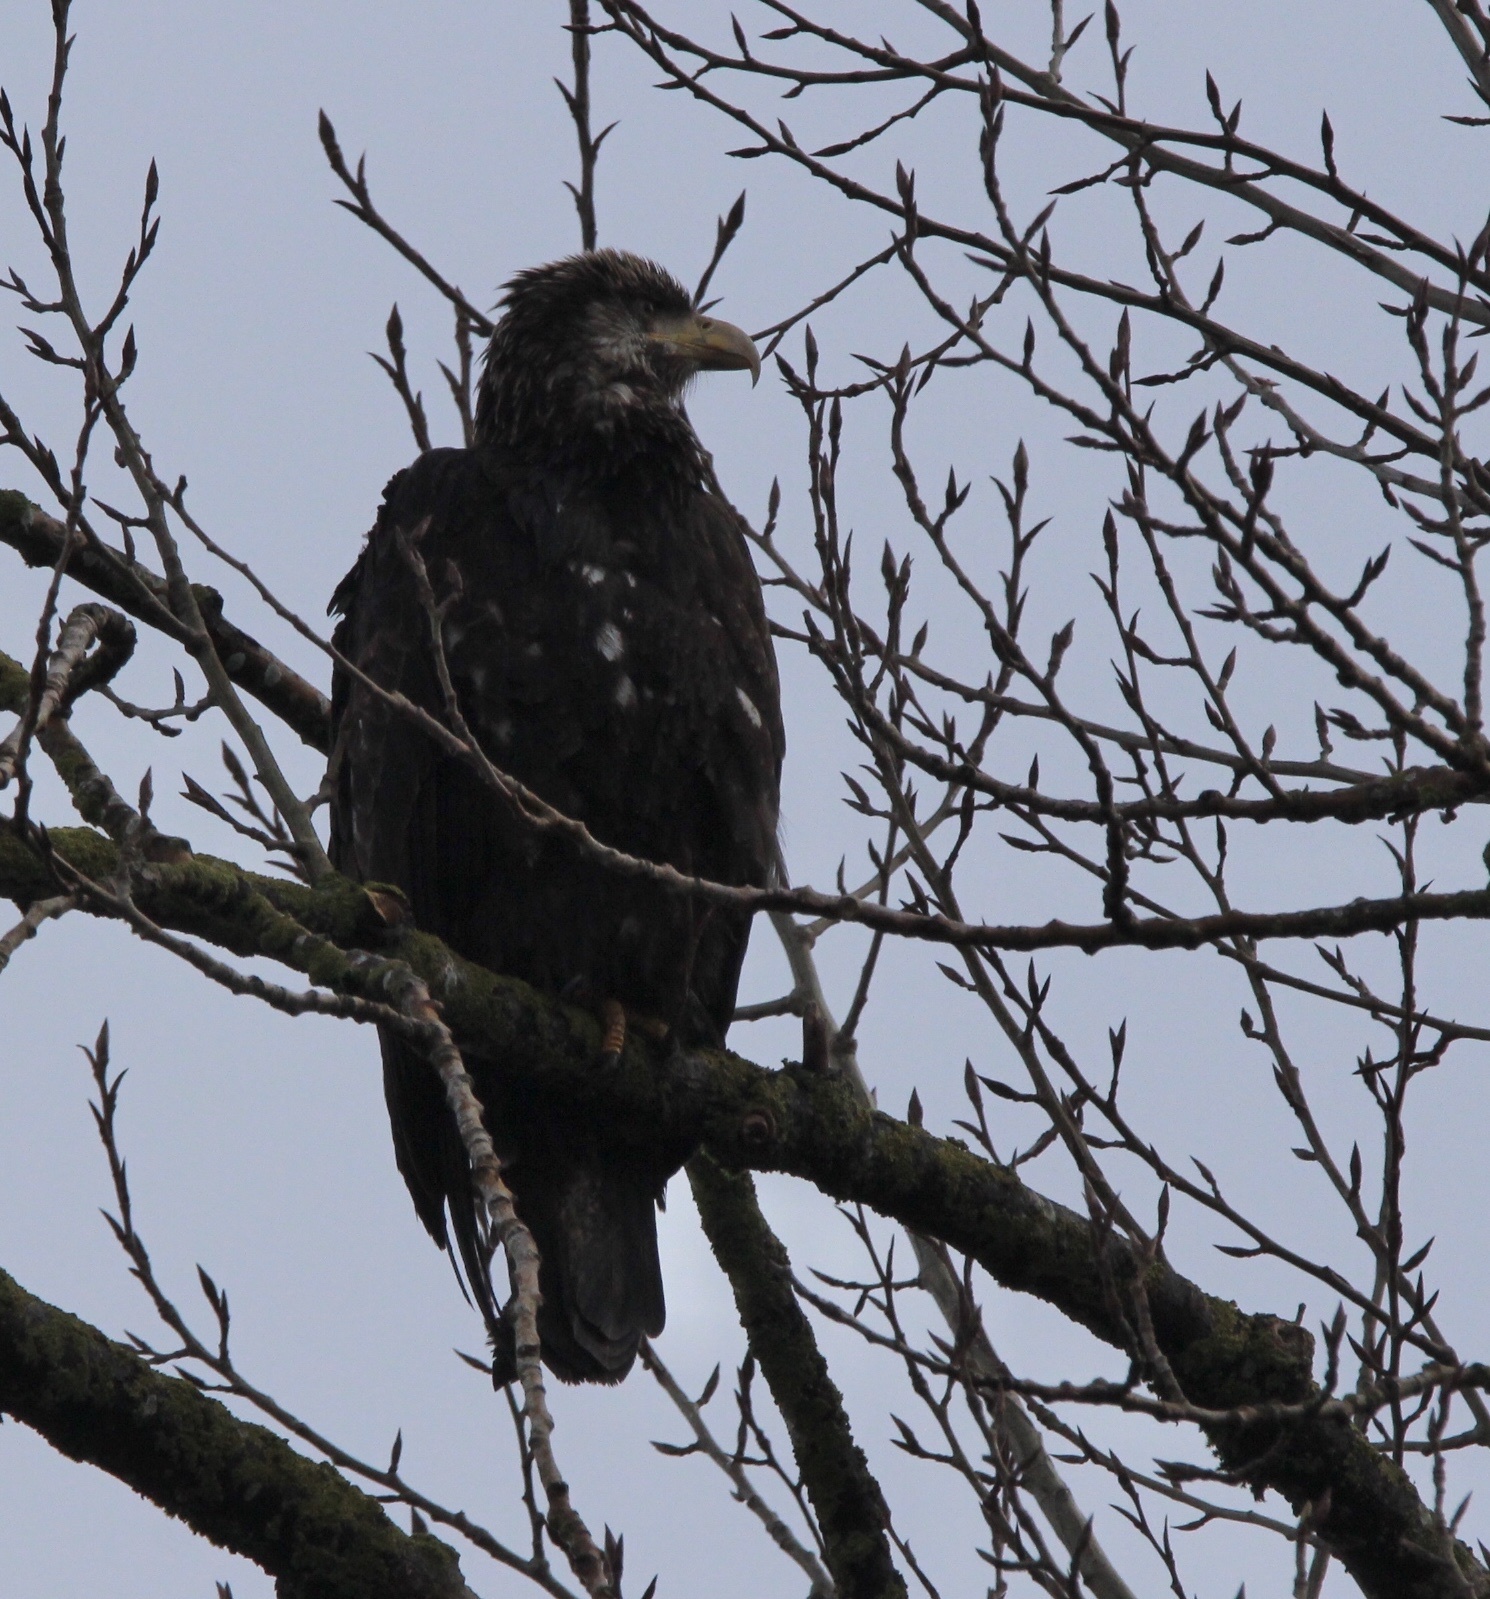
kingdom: Animalia
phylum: Chordata
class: Aves
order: Accipitriformes
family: Accipitridae
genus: Haliaeetus
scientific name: Haliaeetus leucocephalus
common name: Bald eagle
